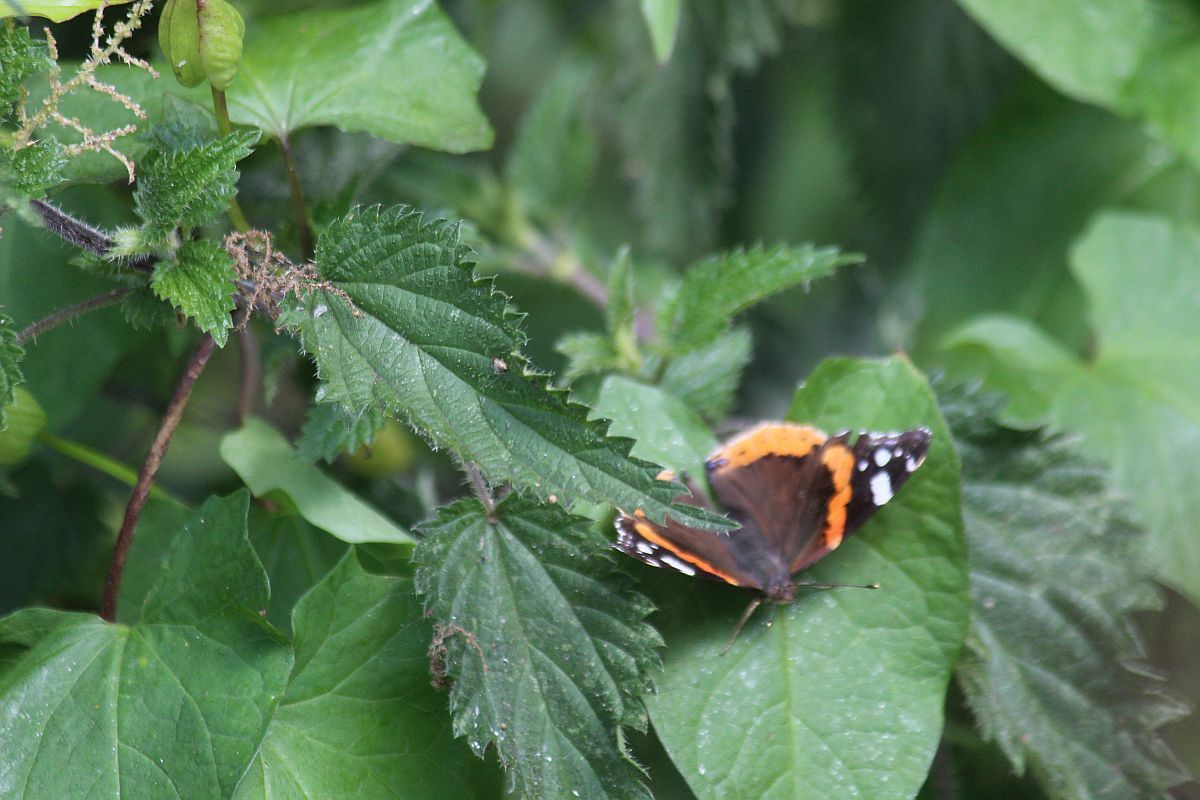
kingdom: Animalia
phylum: Arthropoda
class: Insecta
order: Lepidoptera
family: Nymphalidae
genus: Vanessa
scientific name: Vanessa atalanta
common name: Red admiral
